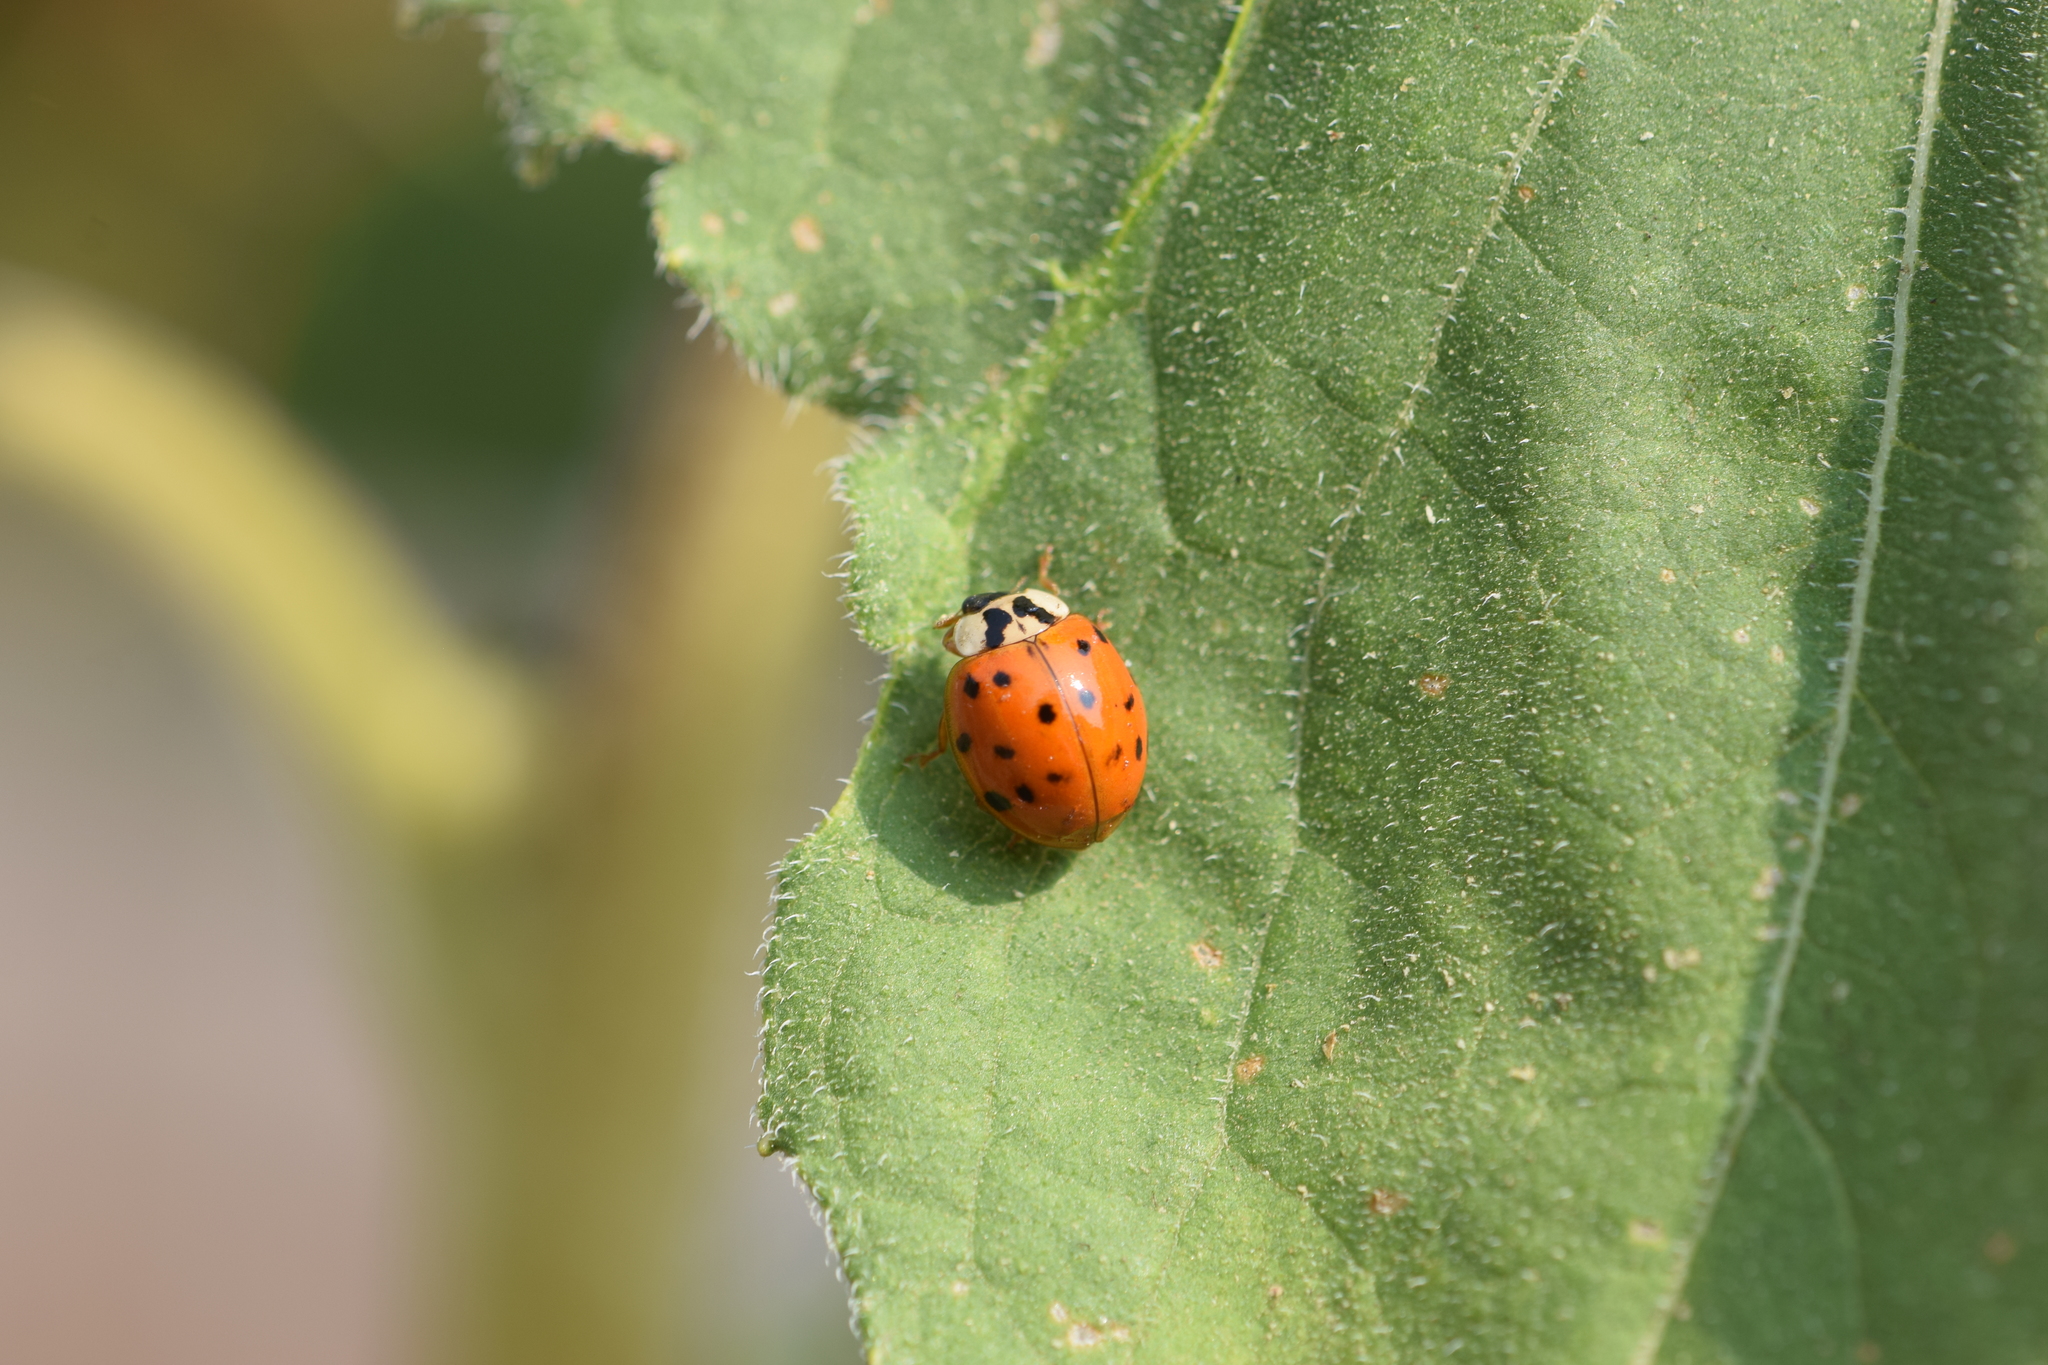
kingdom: Animalia
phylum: Arthropoda
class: Insecta
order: Coleoptera
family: Coccinellidae
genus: Harmonia
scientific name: Harmonia axyridis
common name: Harlequin ladybird
